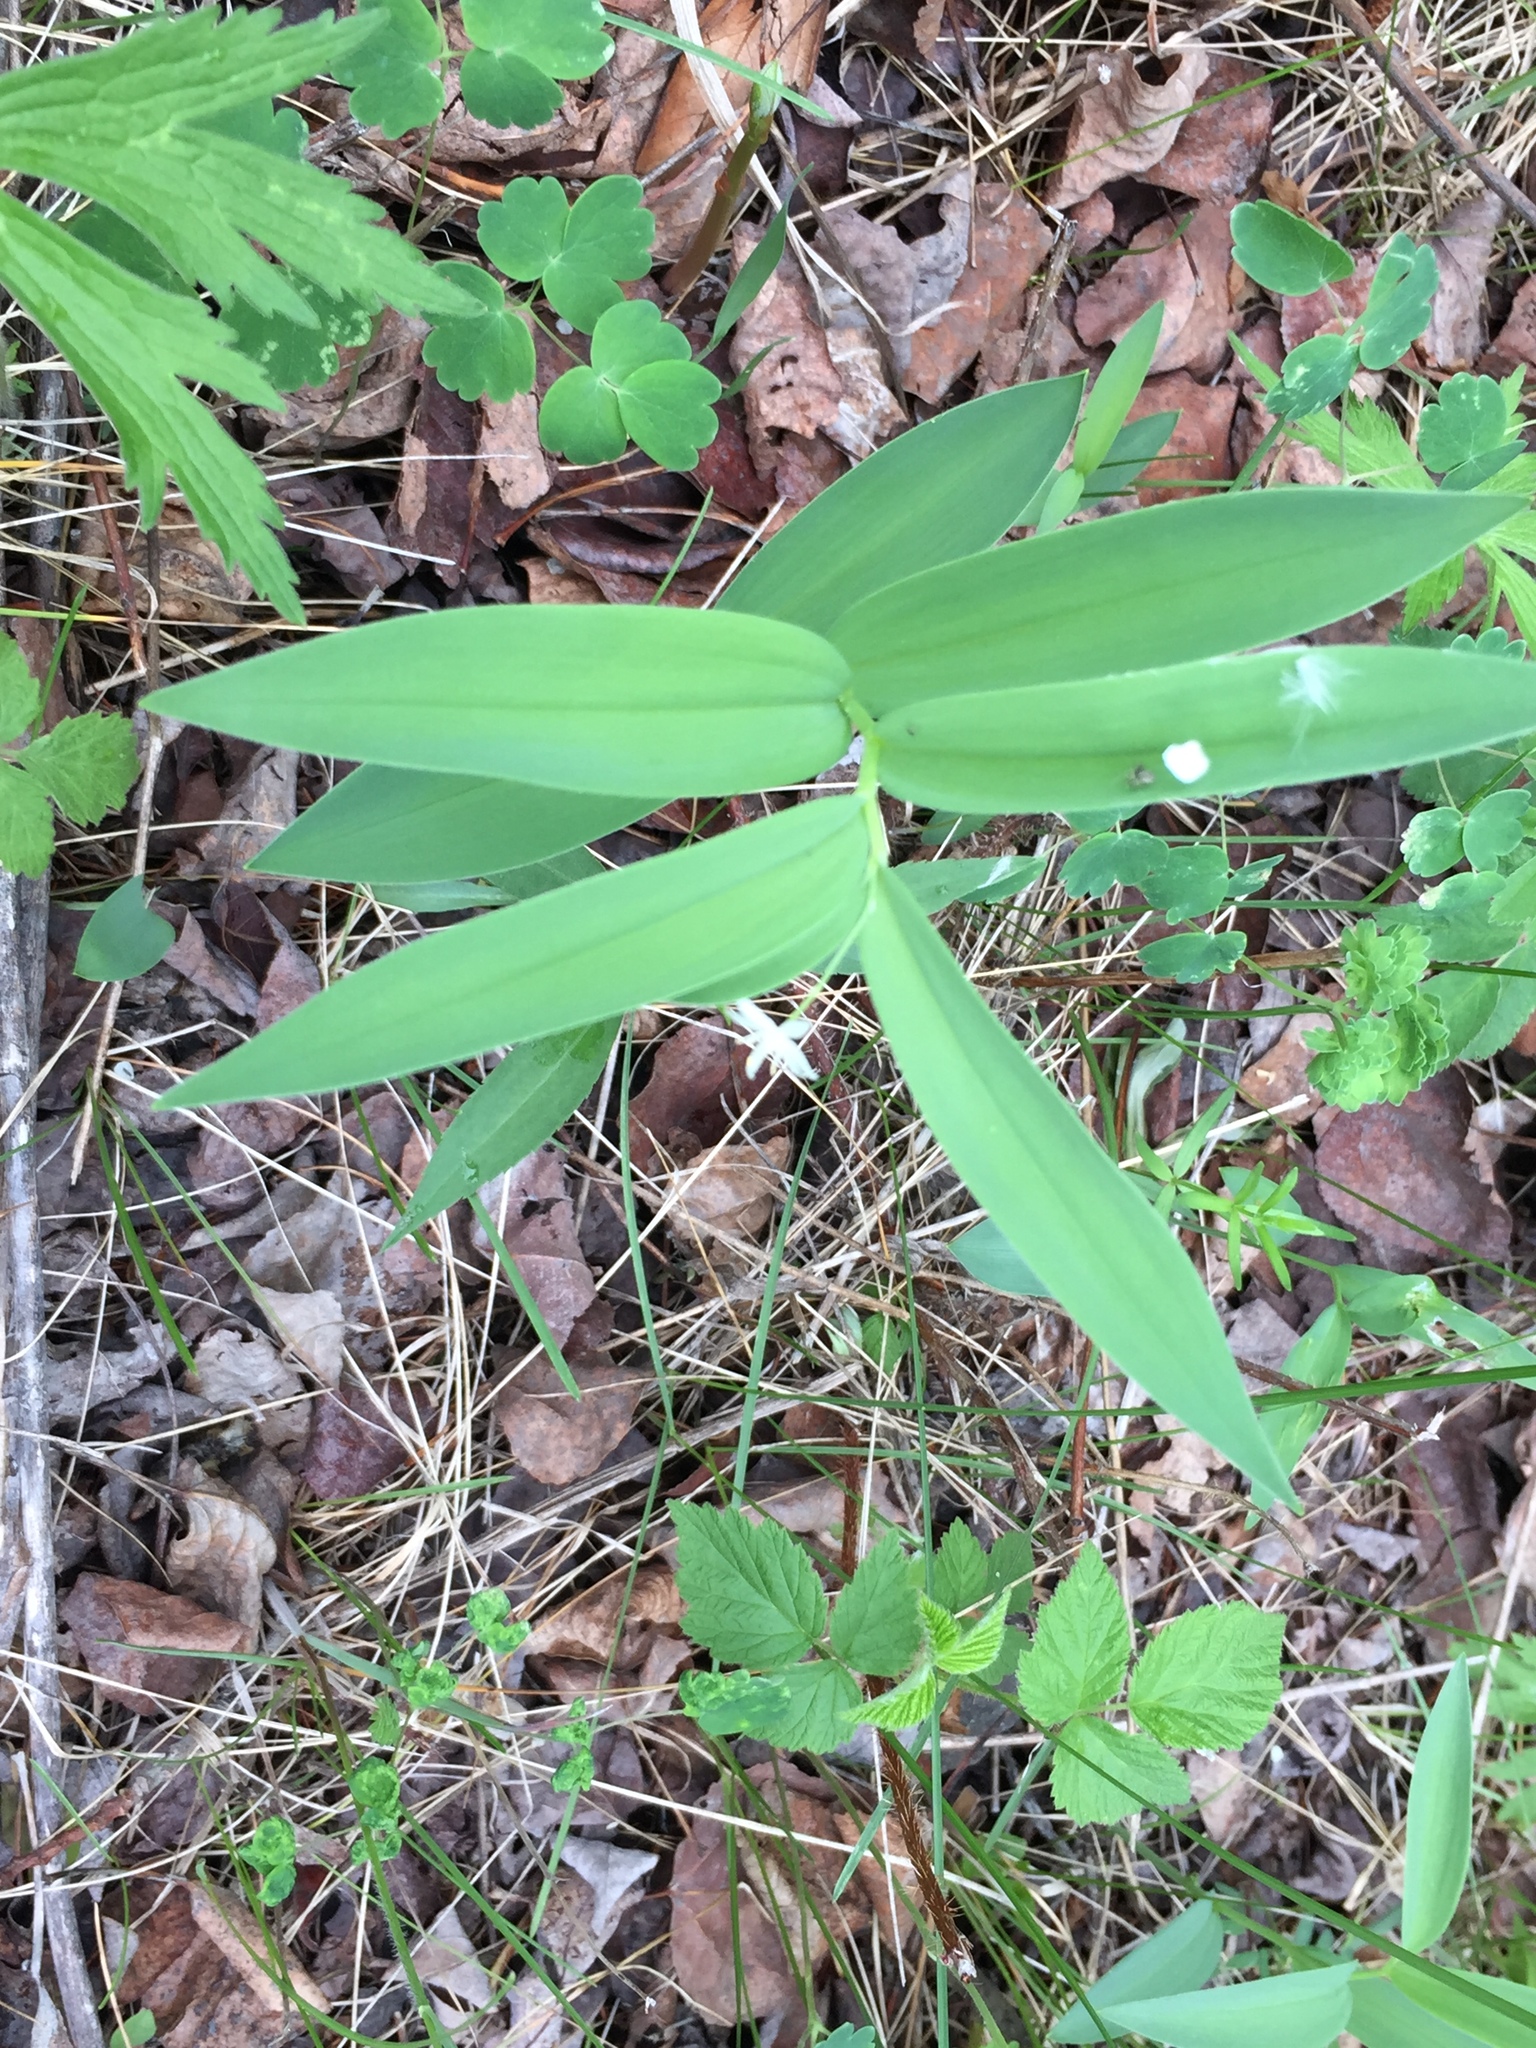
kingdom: Plantae
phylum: Tracheophyta
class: Liliopsida
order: Asparagales
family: Asparagaceae
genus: Maianthemum
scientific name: Maianthemum stellatum
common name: Little false solomon's seal
